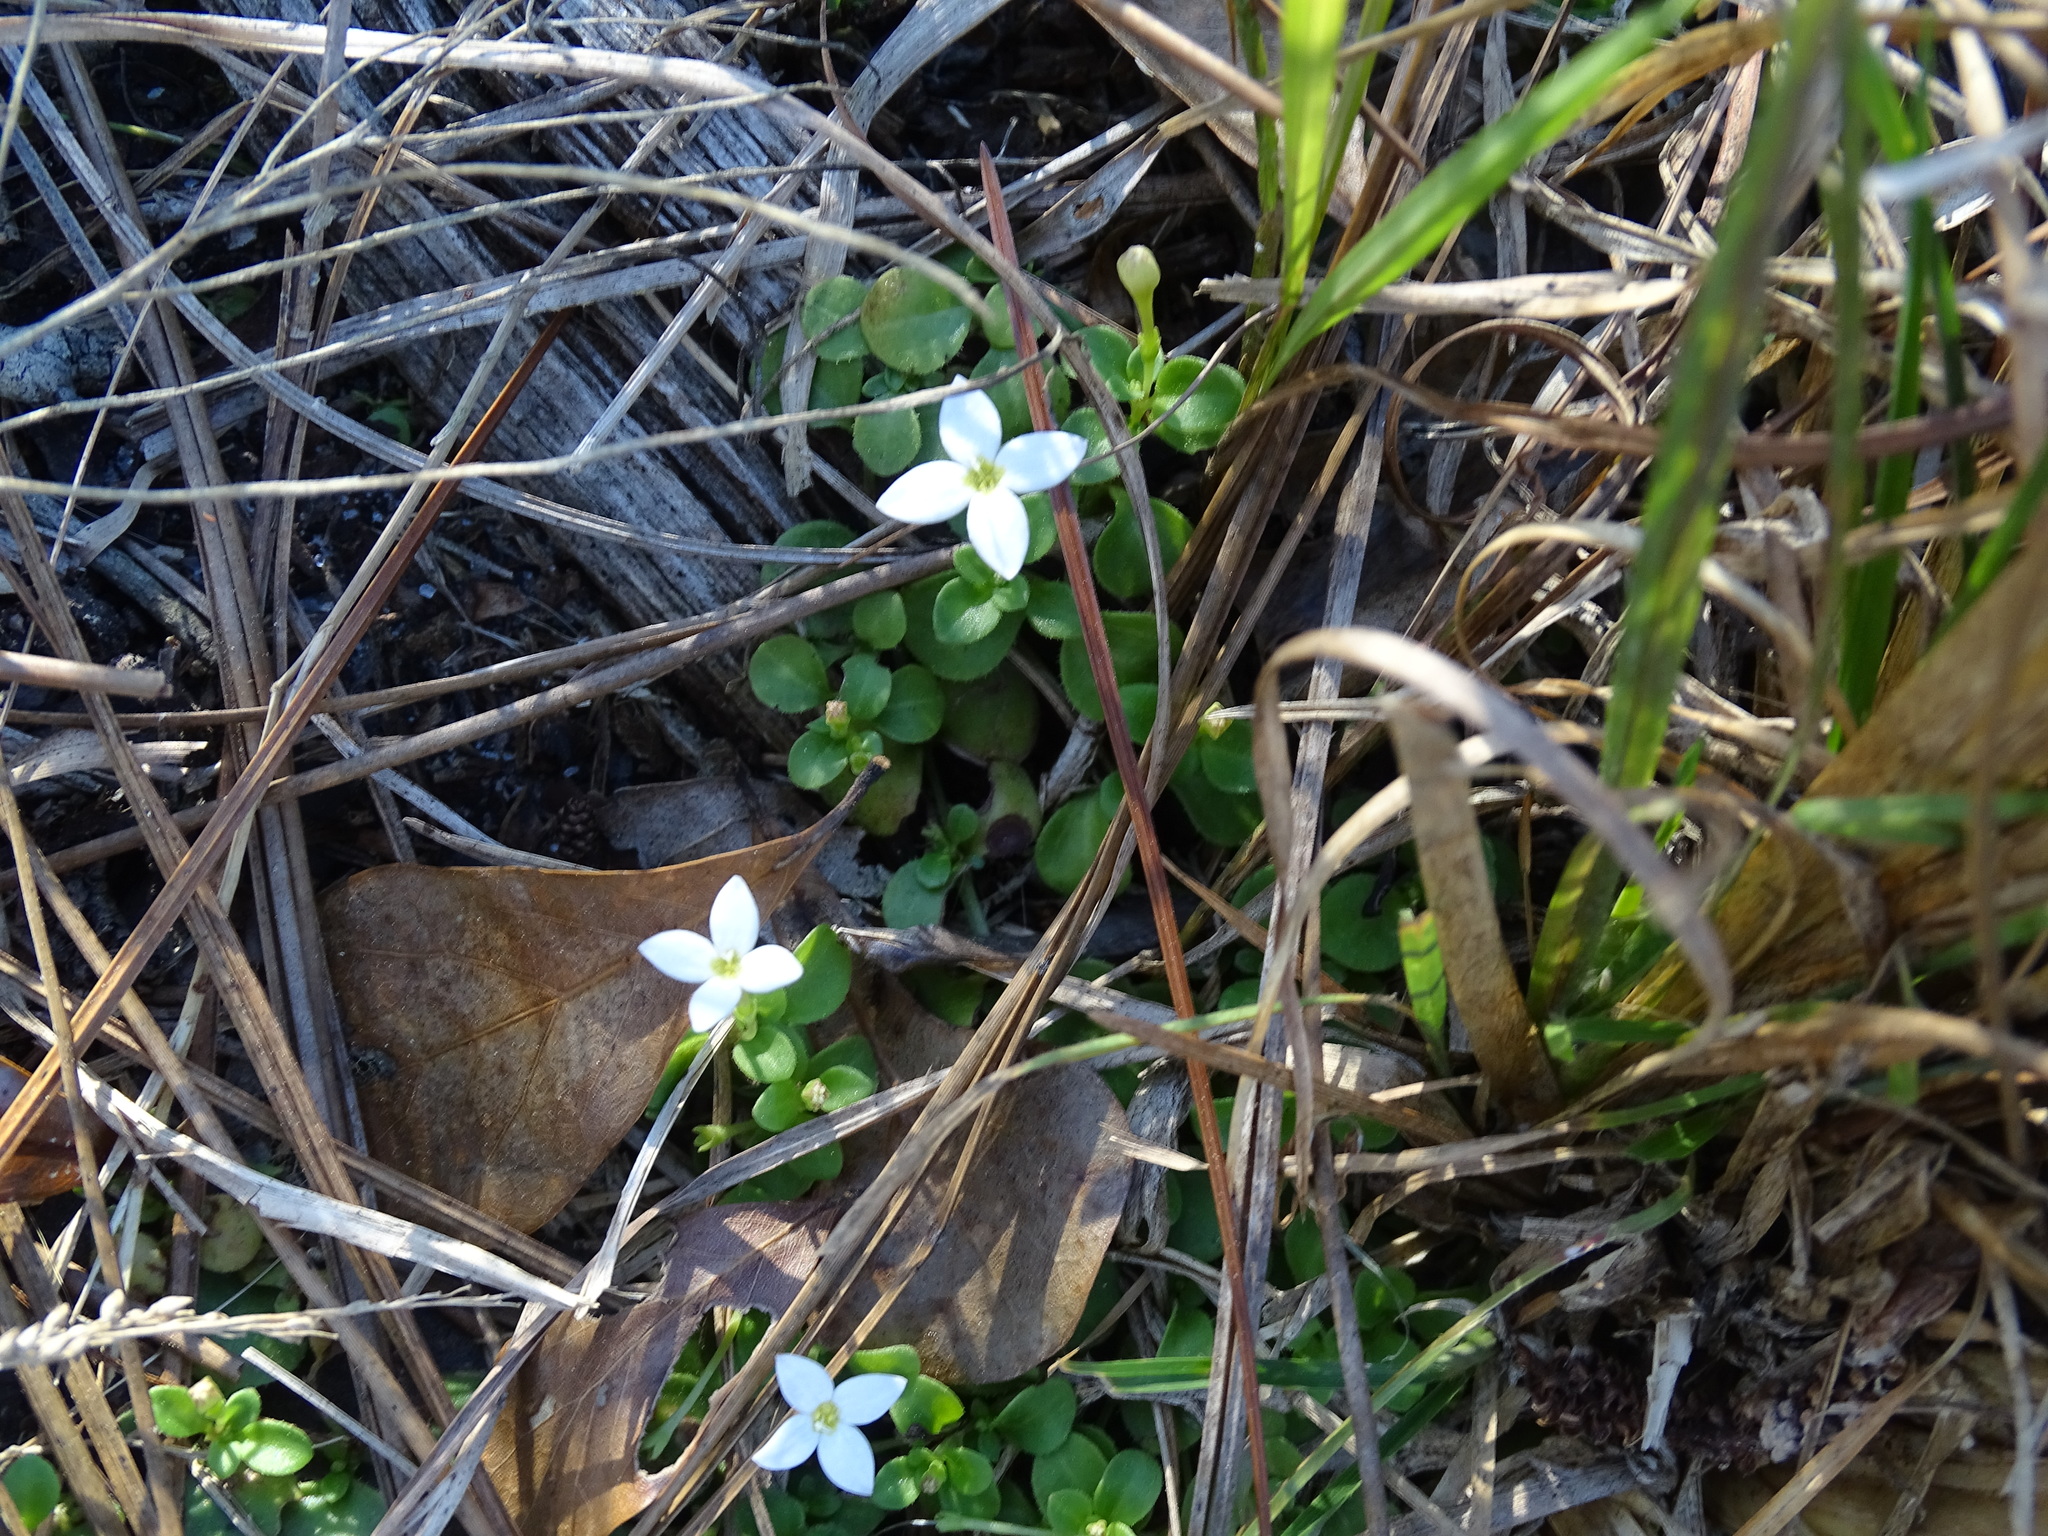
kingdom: Plantae
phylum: Tracheophyta
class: Magnoliopsida
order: Gentianales
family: Rubiaceae
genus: Houstonia
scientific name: Houstonia procumbens
